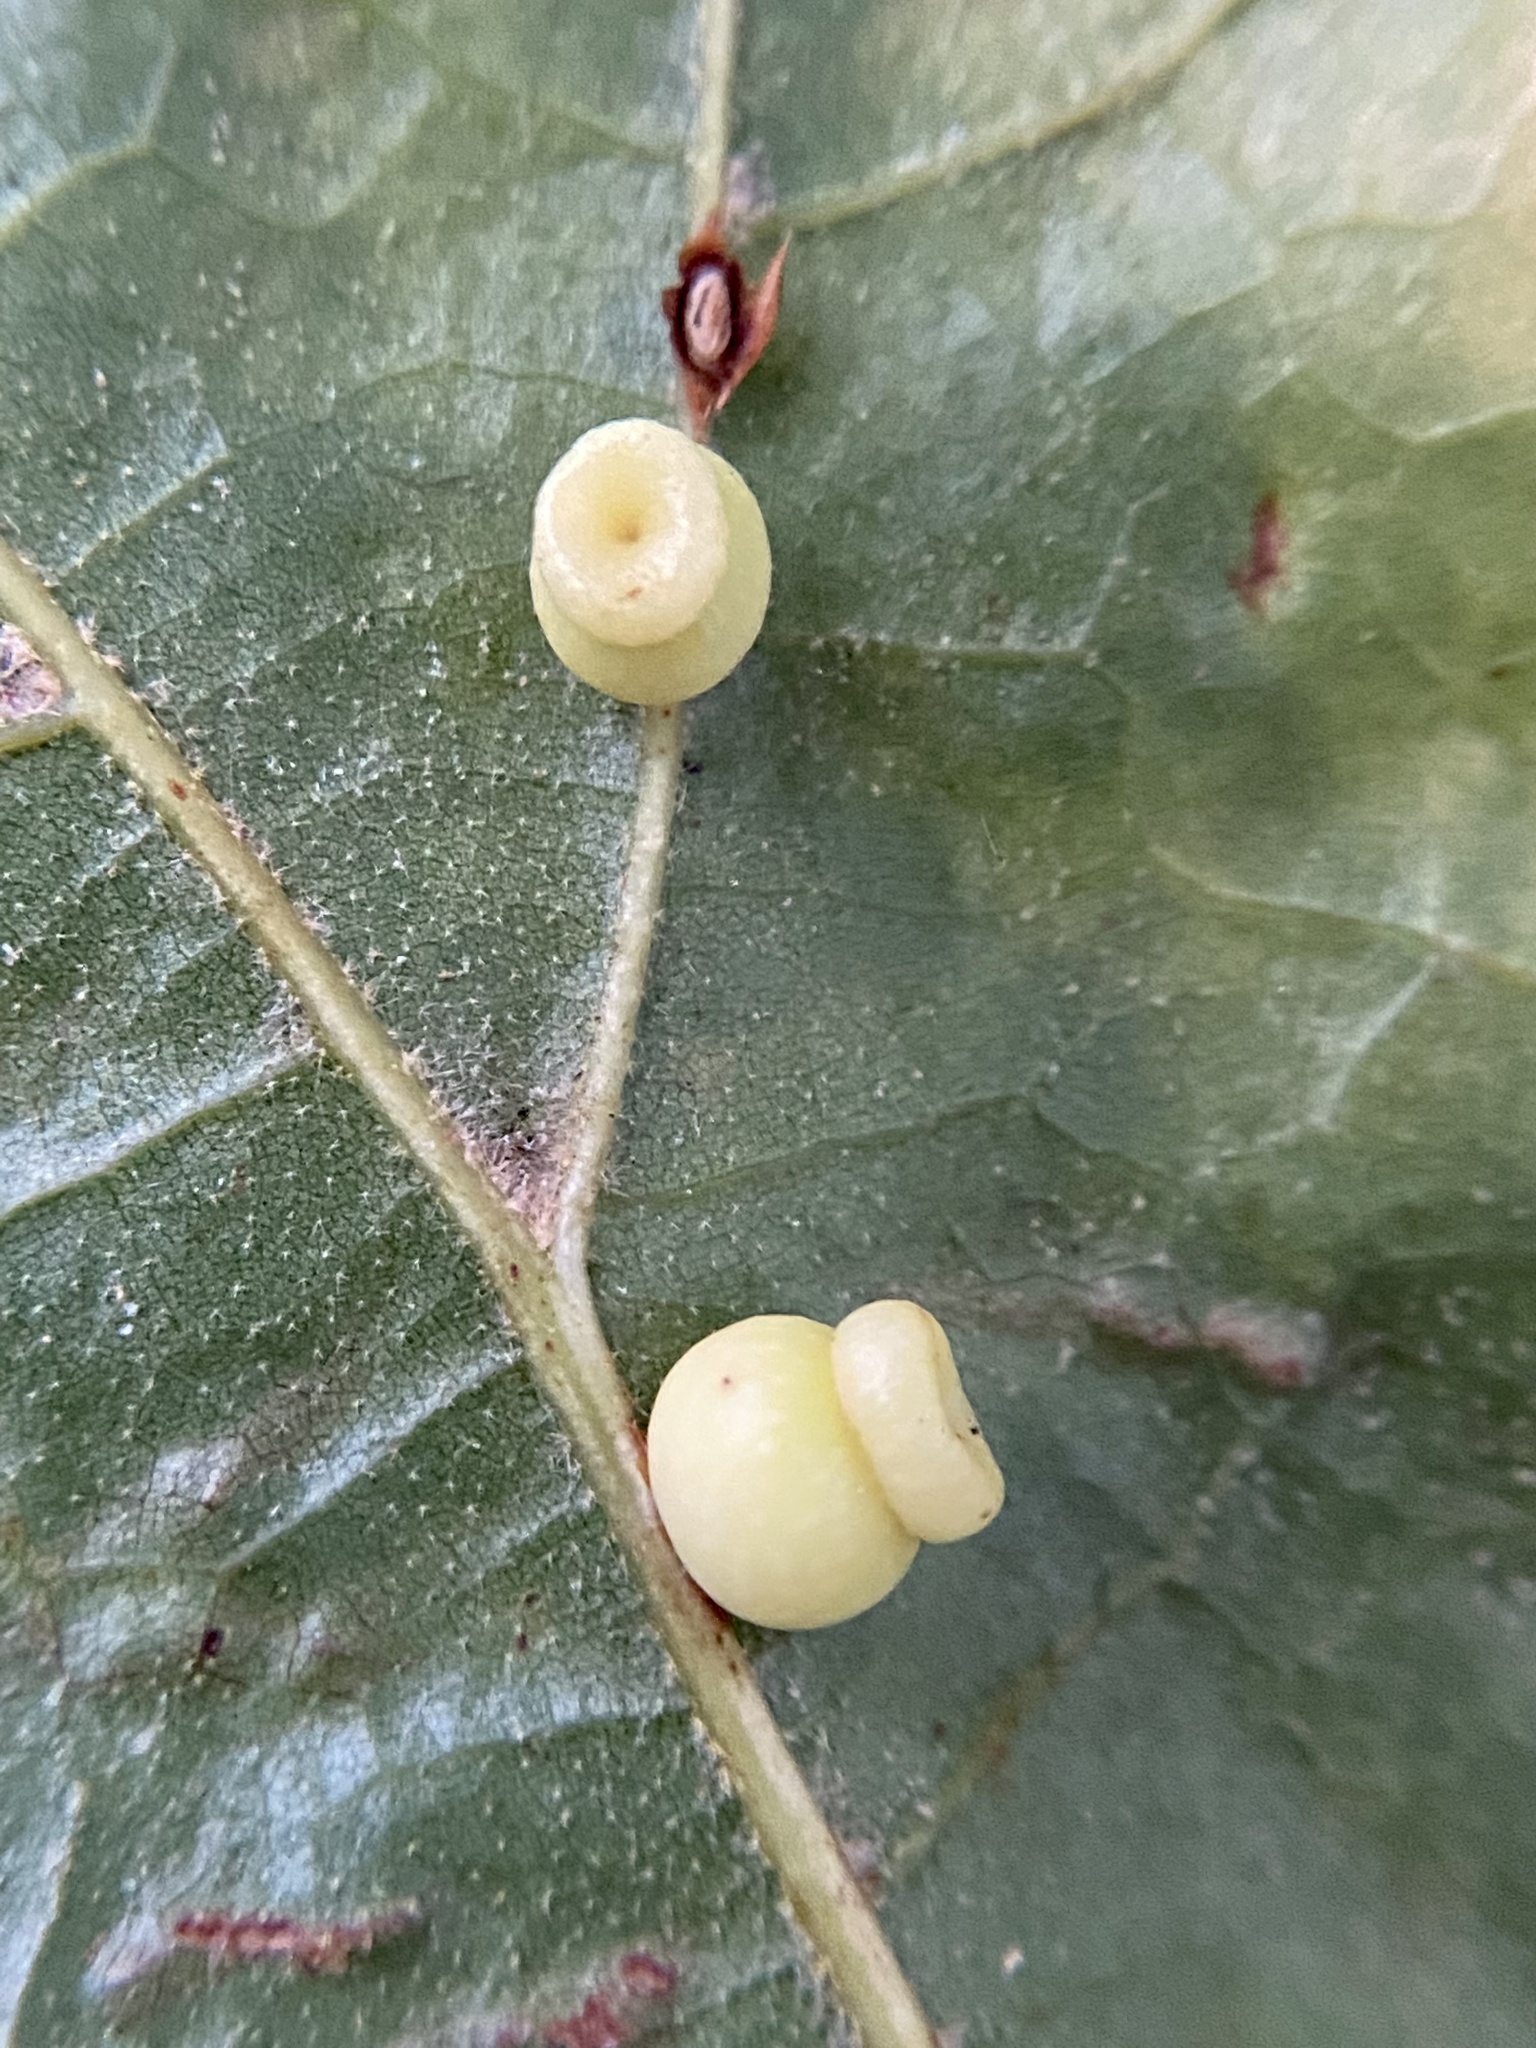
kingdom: Animalia
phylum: Arthropoda
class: Insecta
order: Hymenoptera
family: Cynipidae
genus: Kokkocynips
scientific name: Kokkocynips rileyi
